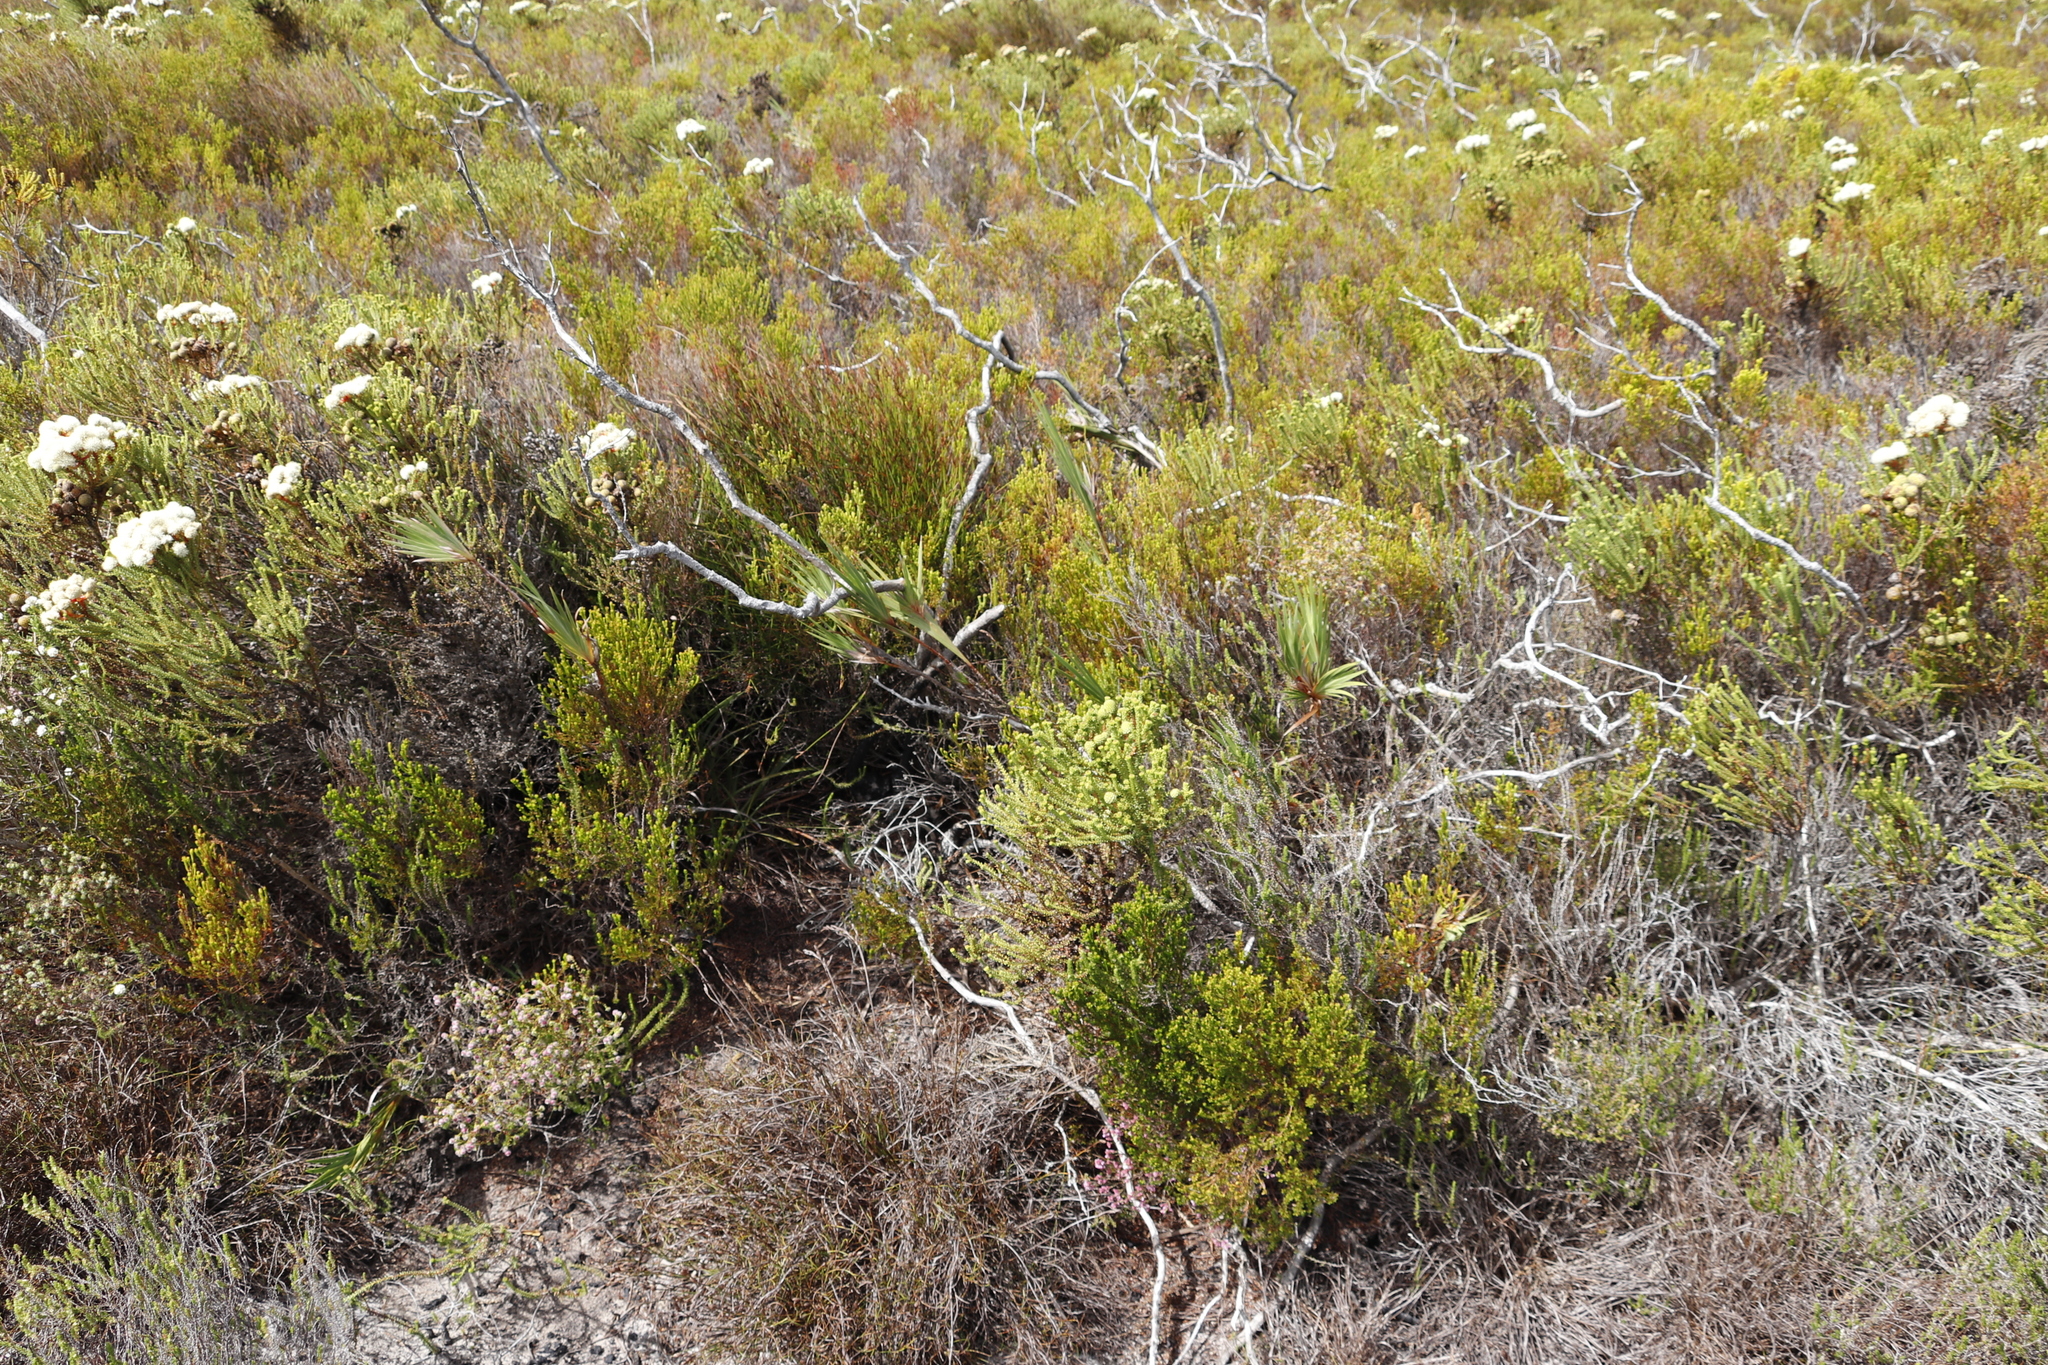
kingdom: Plantae
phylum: Tracheophyta
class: Liliopsida
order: Asparagales
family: Iridaceae
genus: Witsenia
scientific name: Witsenia maura
